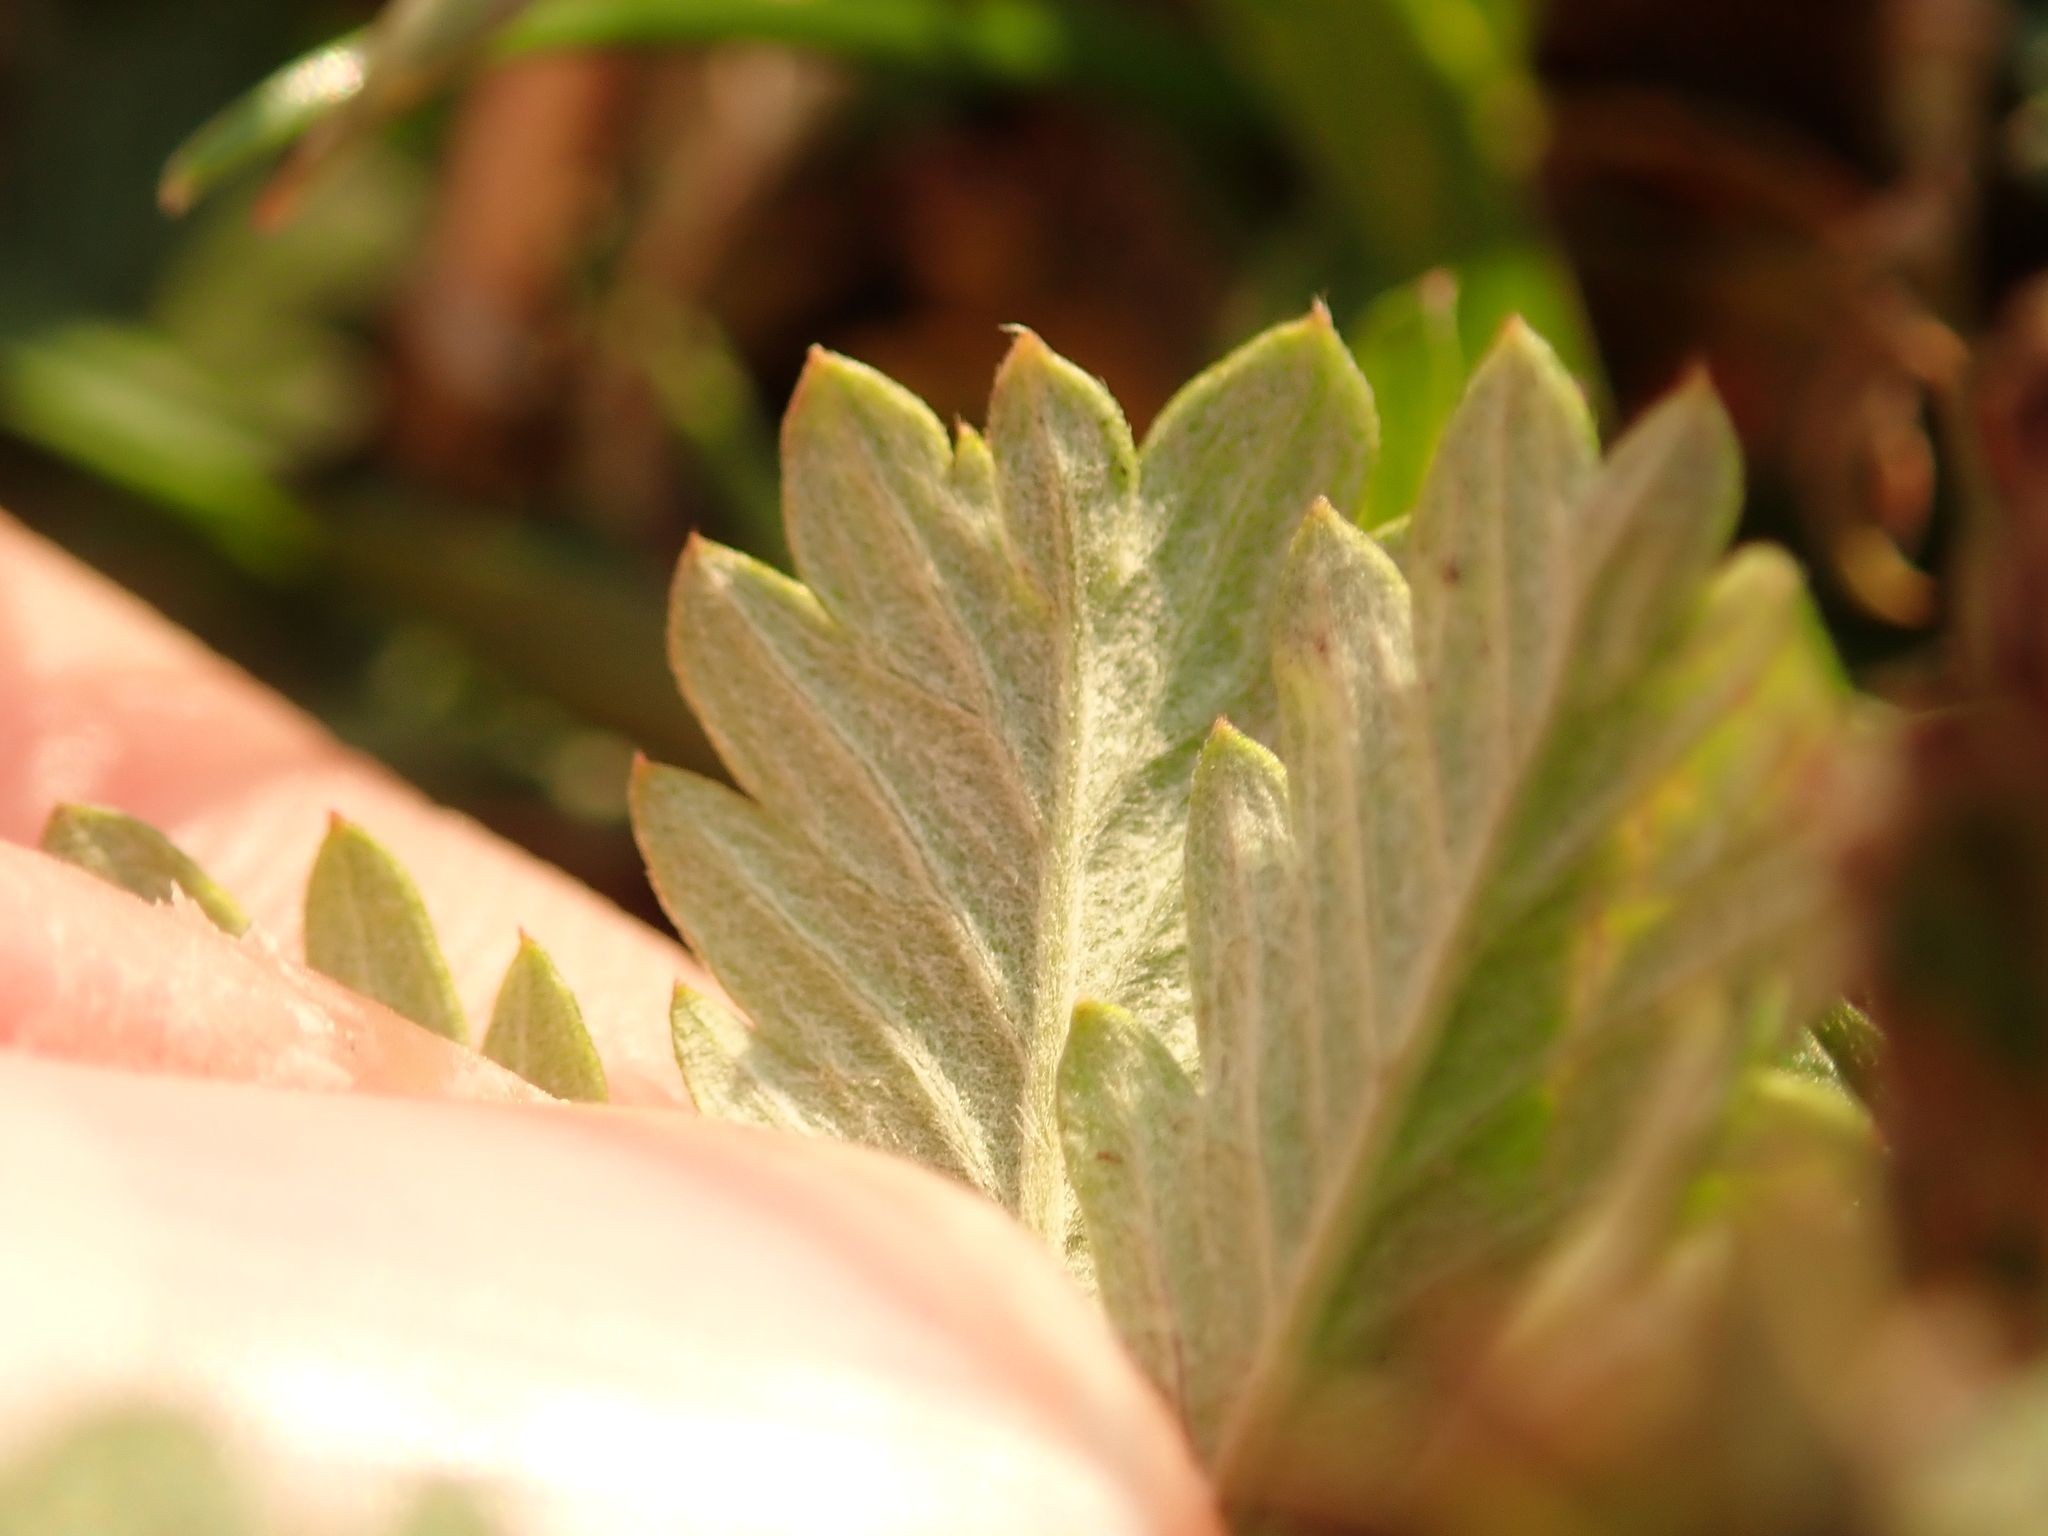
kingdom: Plantae
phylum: Tracheophyta
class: Magnoliopsida
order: Rosales
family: Rosaceae
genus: Potentilla
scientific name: Potentilla argentea
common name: Hoary cinquefoil
